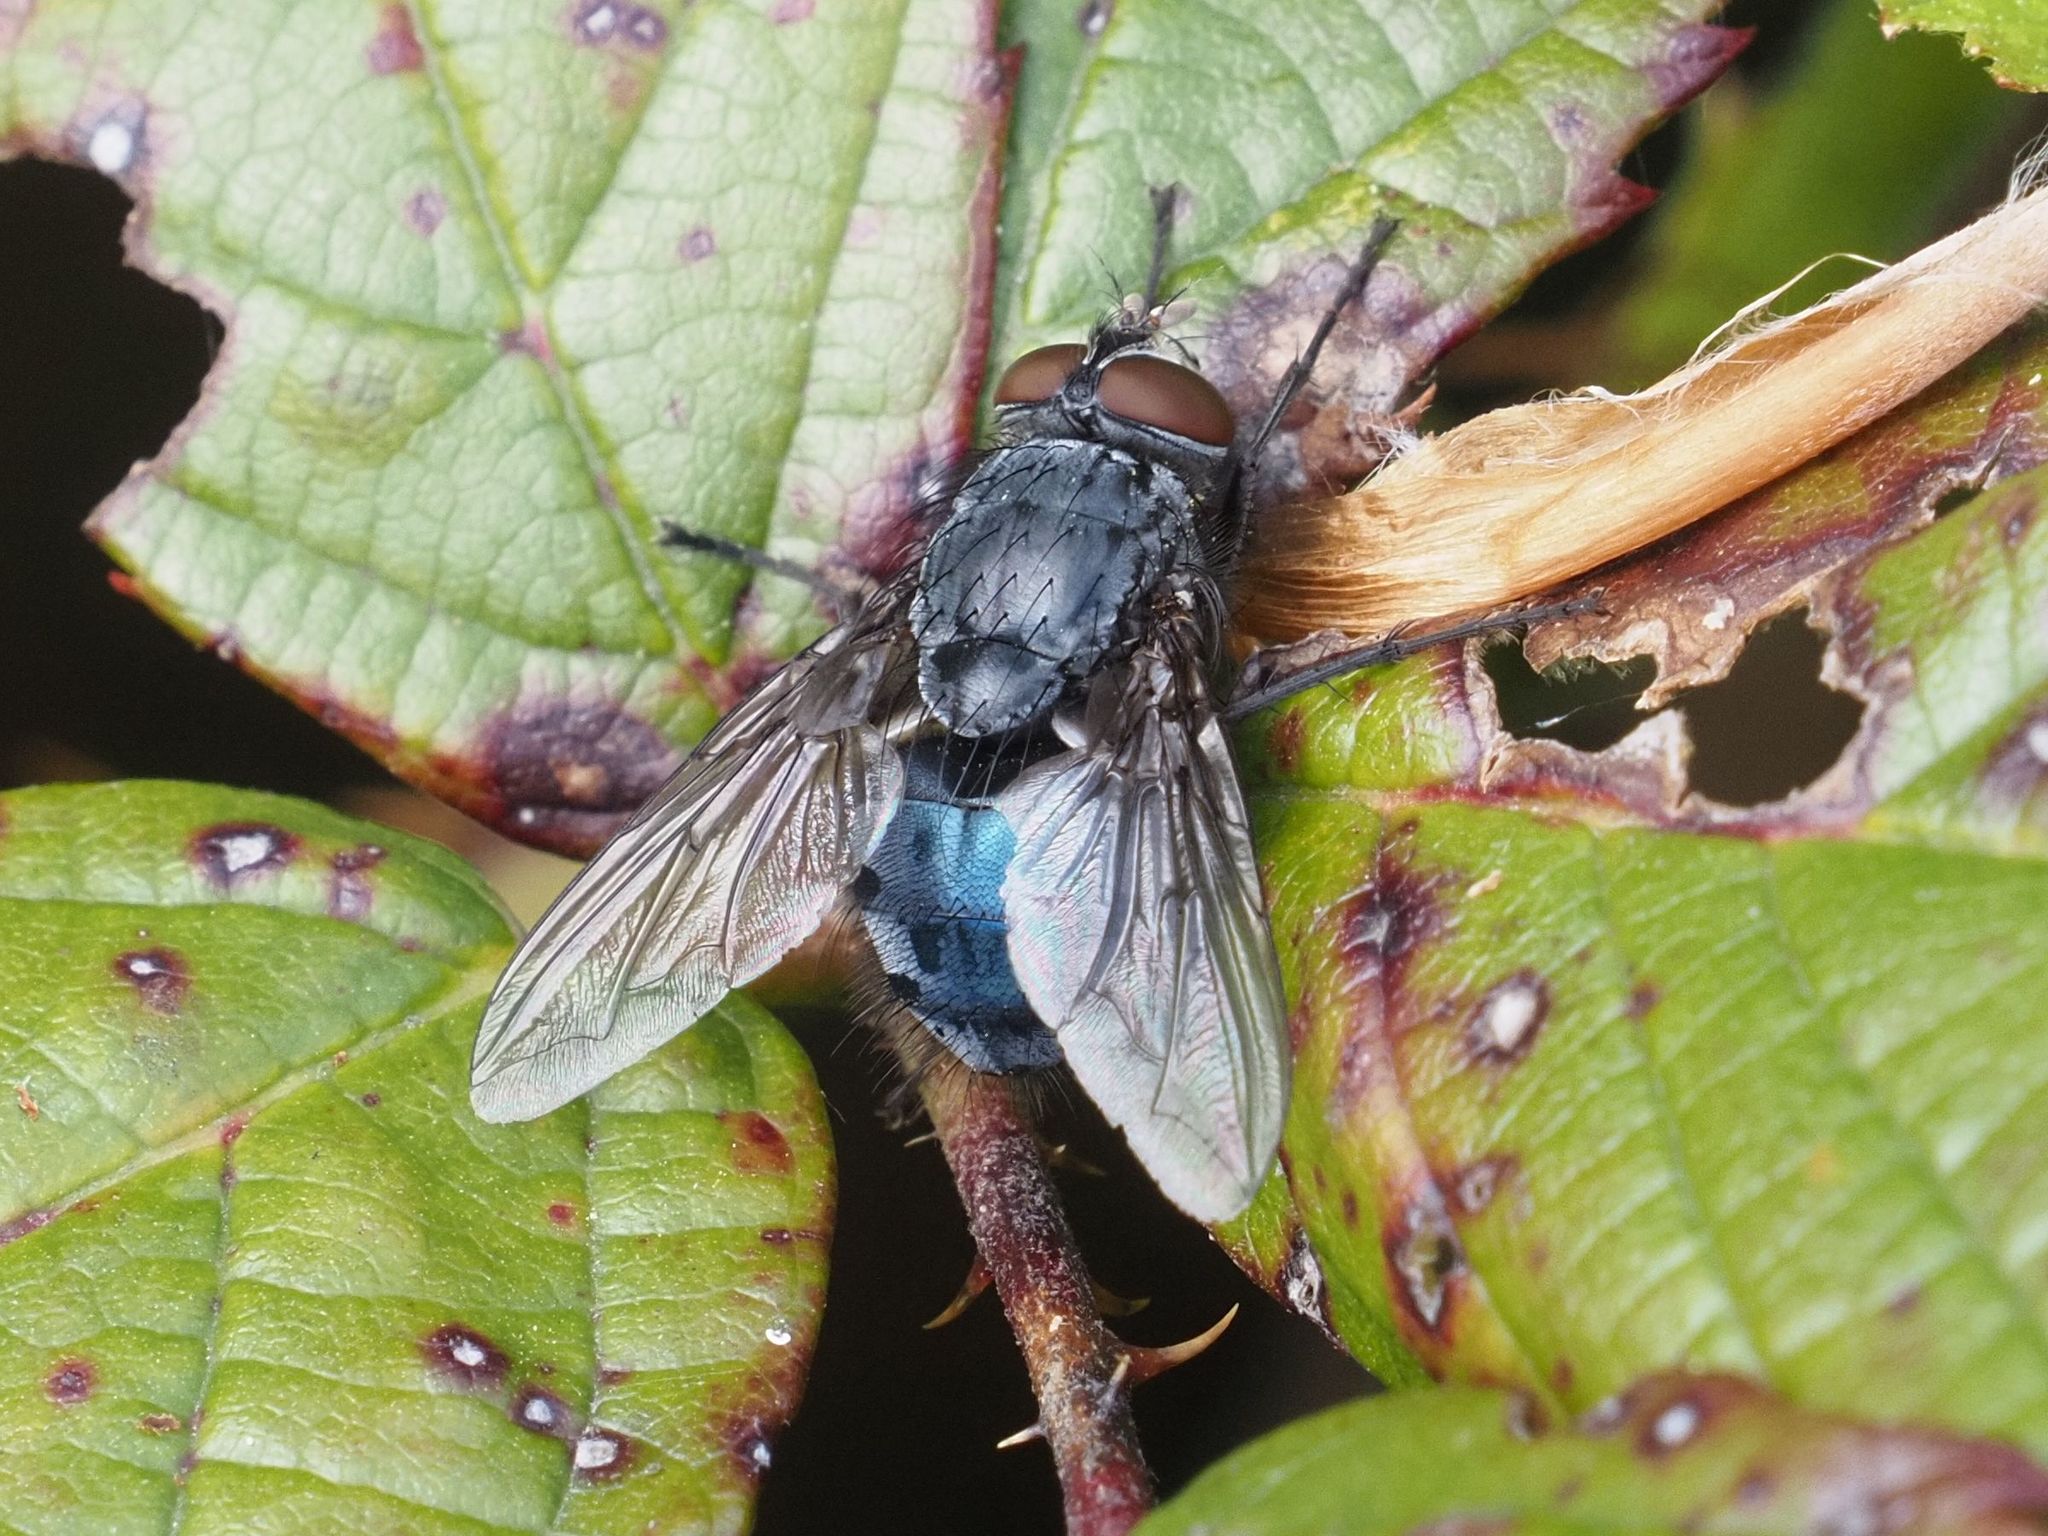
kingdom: Animalia
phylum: Arthropoda
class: Insecta
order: Diptera
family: Calliphoridae
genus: Calliphora
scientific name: Calliphora vomitoria
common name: Blue bottle fly
